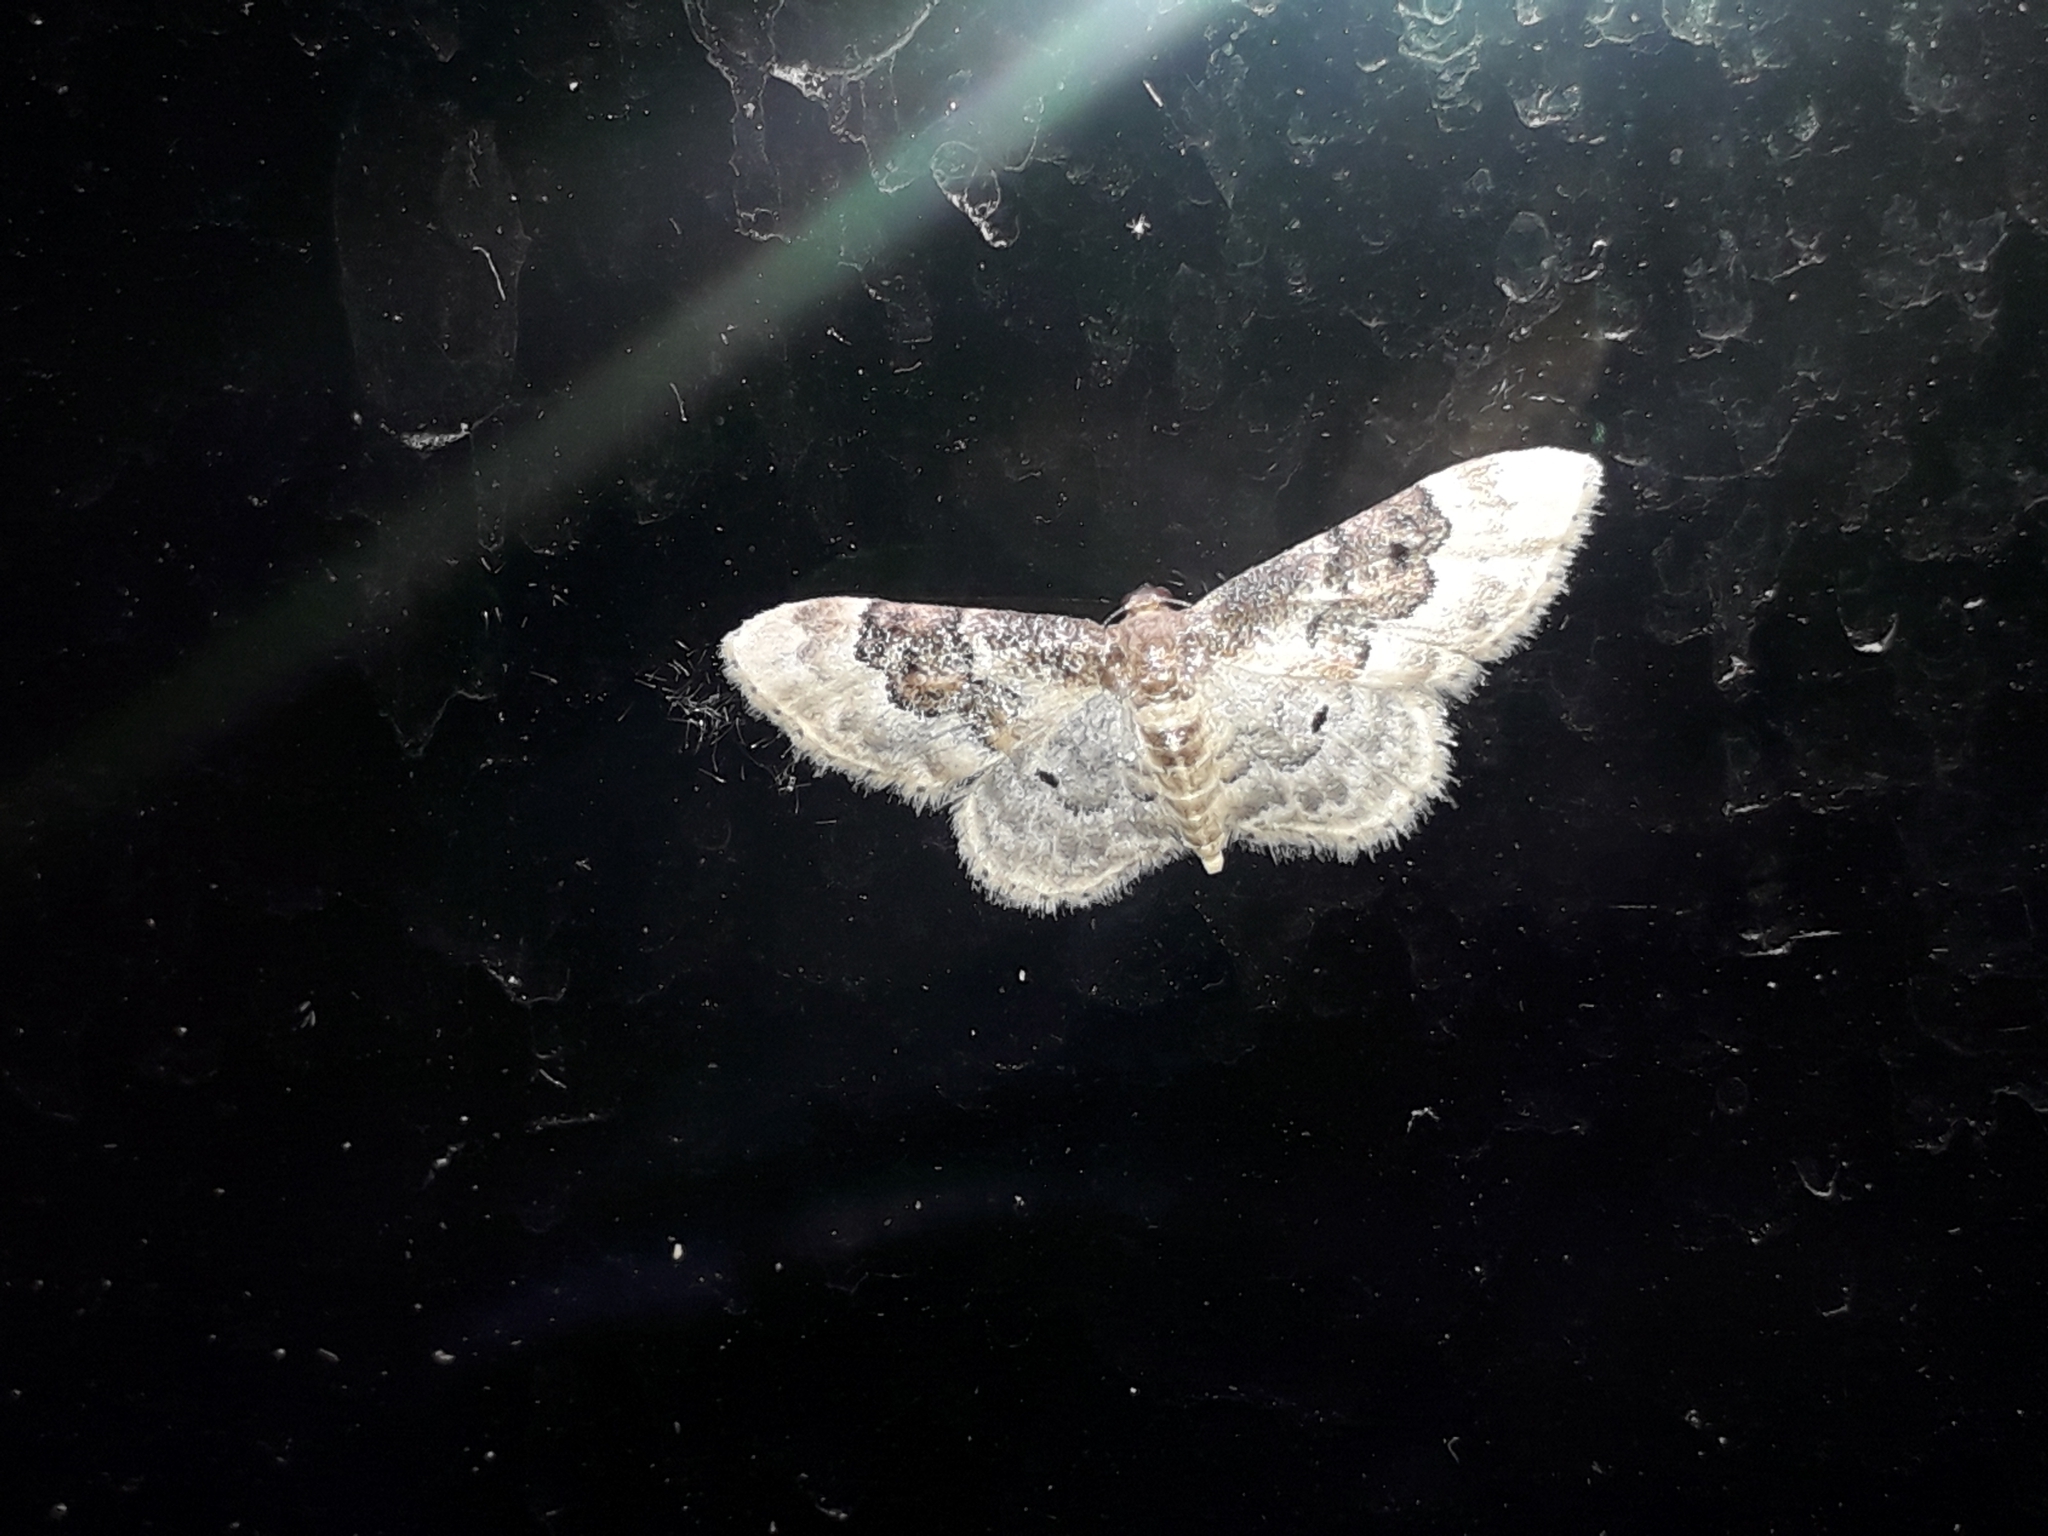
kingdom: Animalia
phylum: Arthropoda
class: Insecta
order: Lepidoptera
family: Geometridae
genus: Idaea
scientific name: Idaea rusticata
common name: Least carpet
